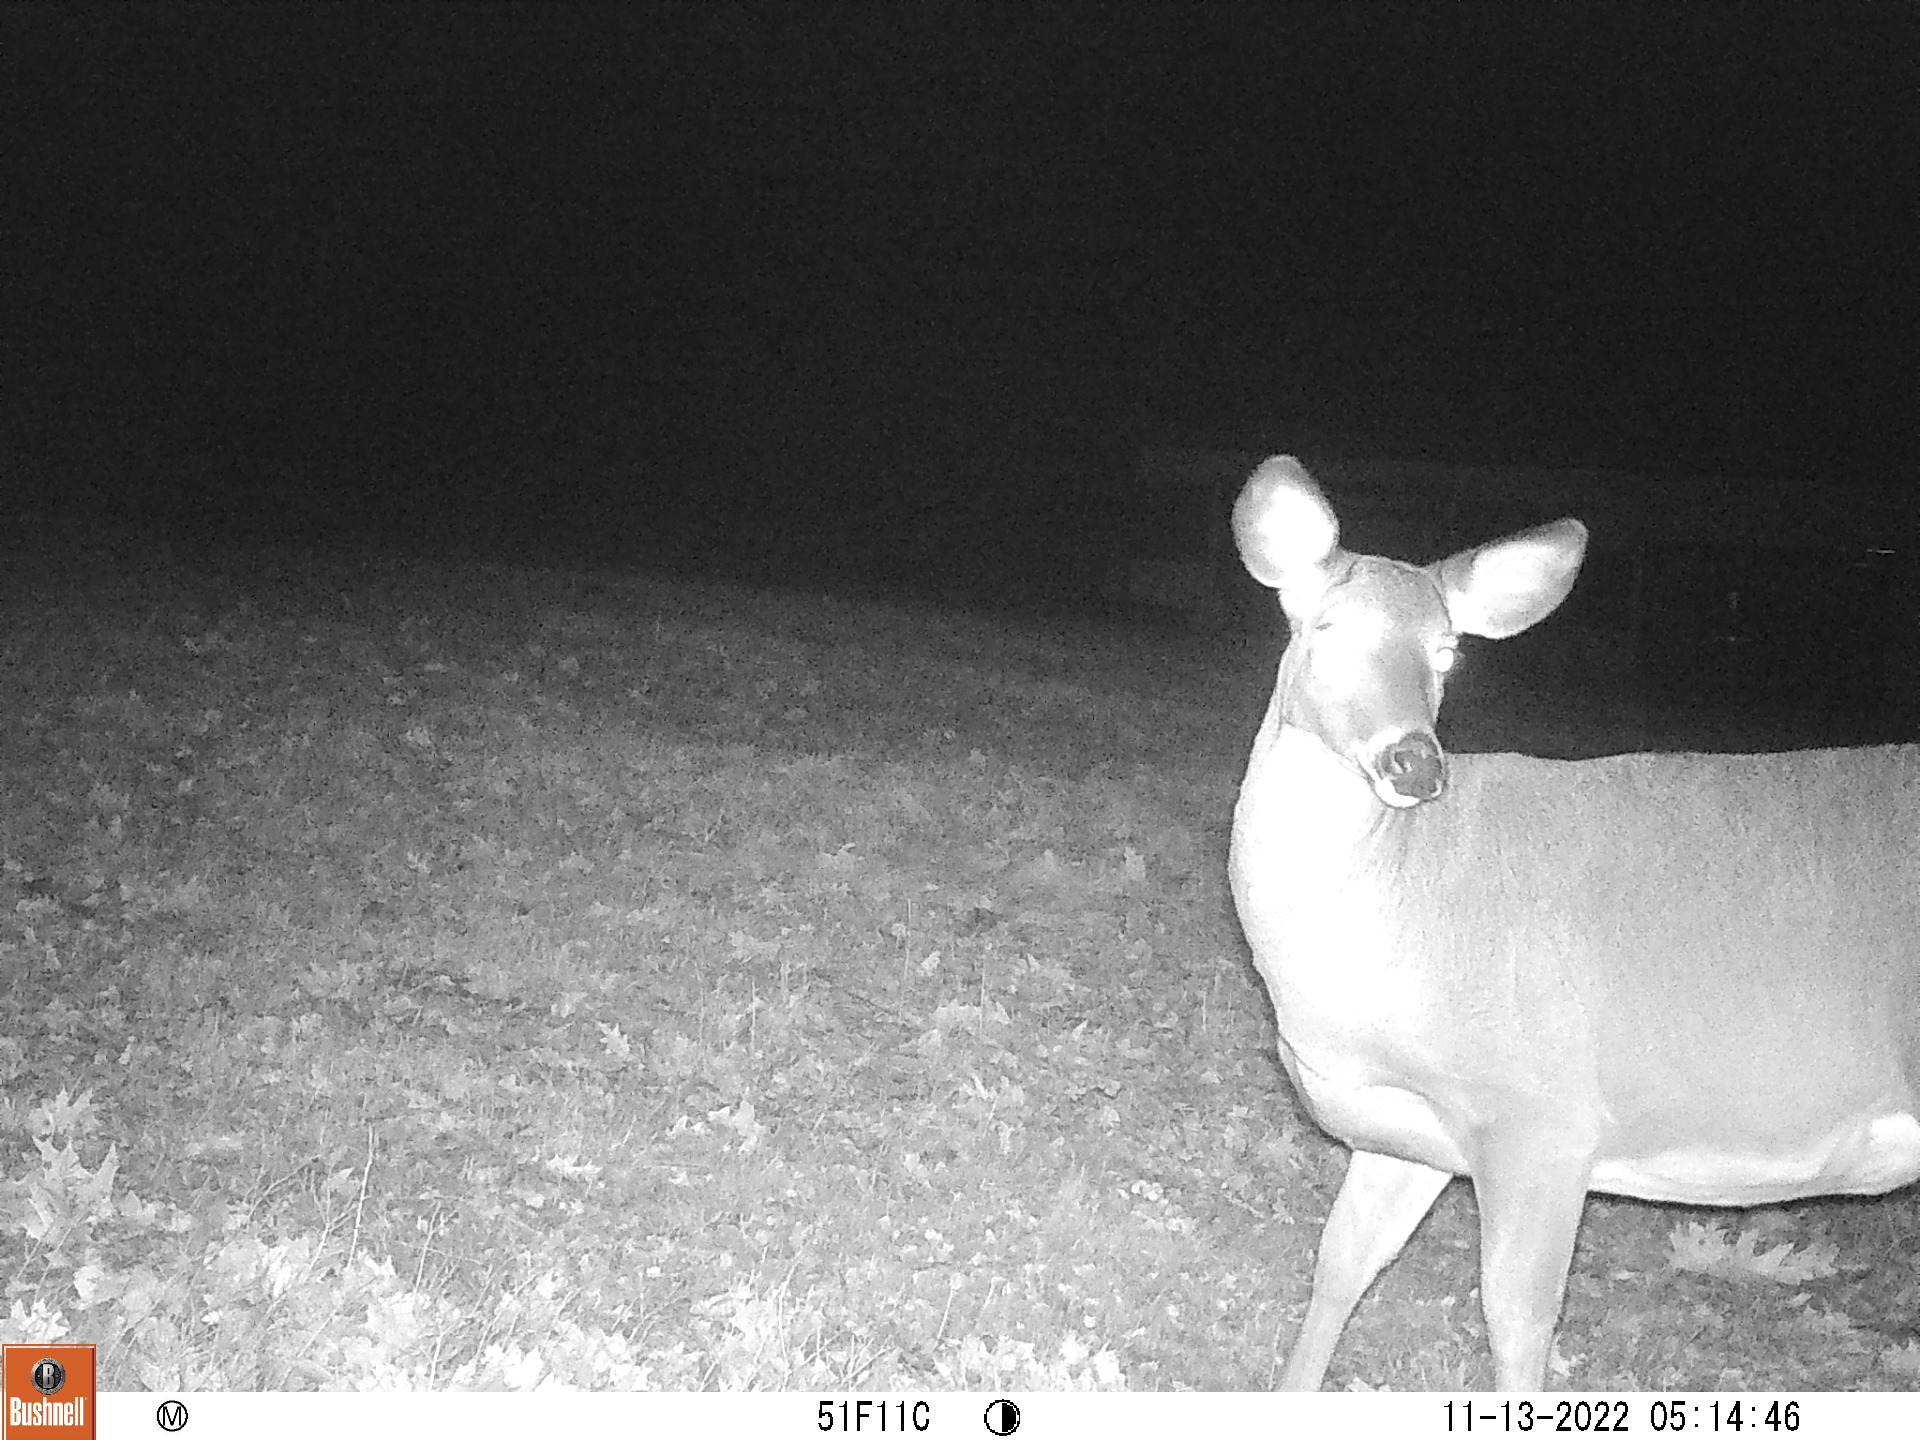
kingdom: Animalia
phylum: Chordata
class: Mammalia
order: Artiodactyla
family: Cervidae
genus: Odocoileus
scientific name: Odocoileus virginianus
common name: White-tailed deer
